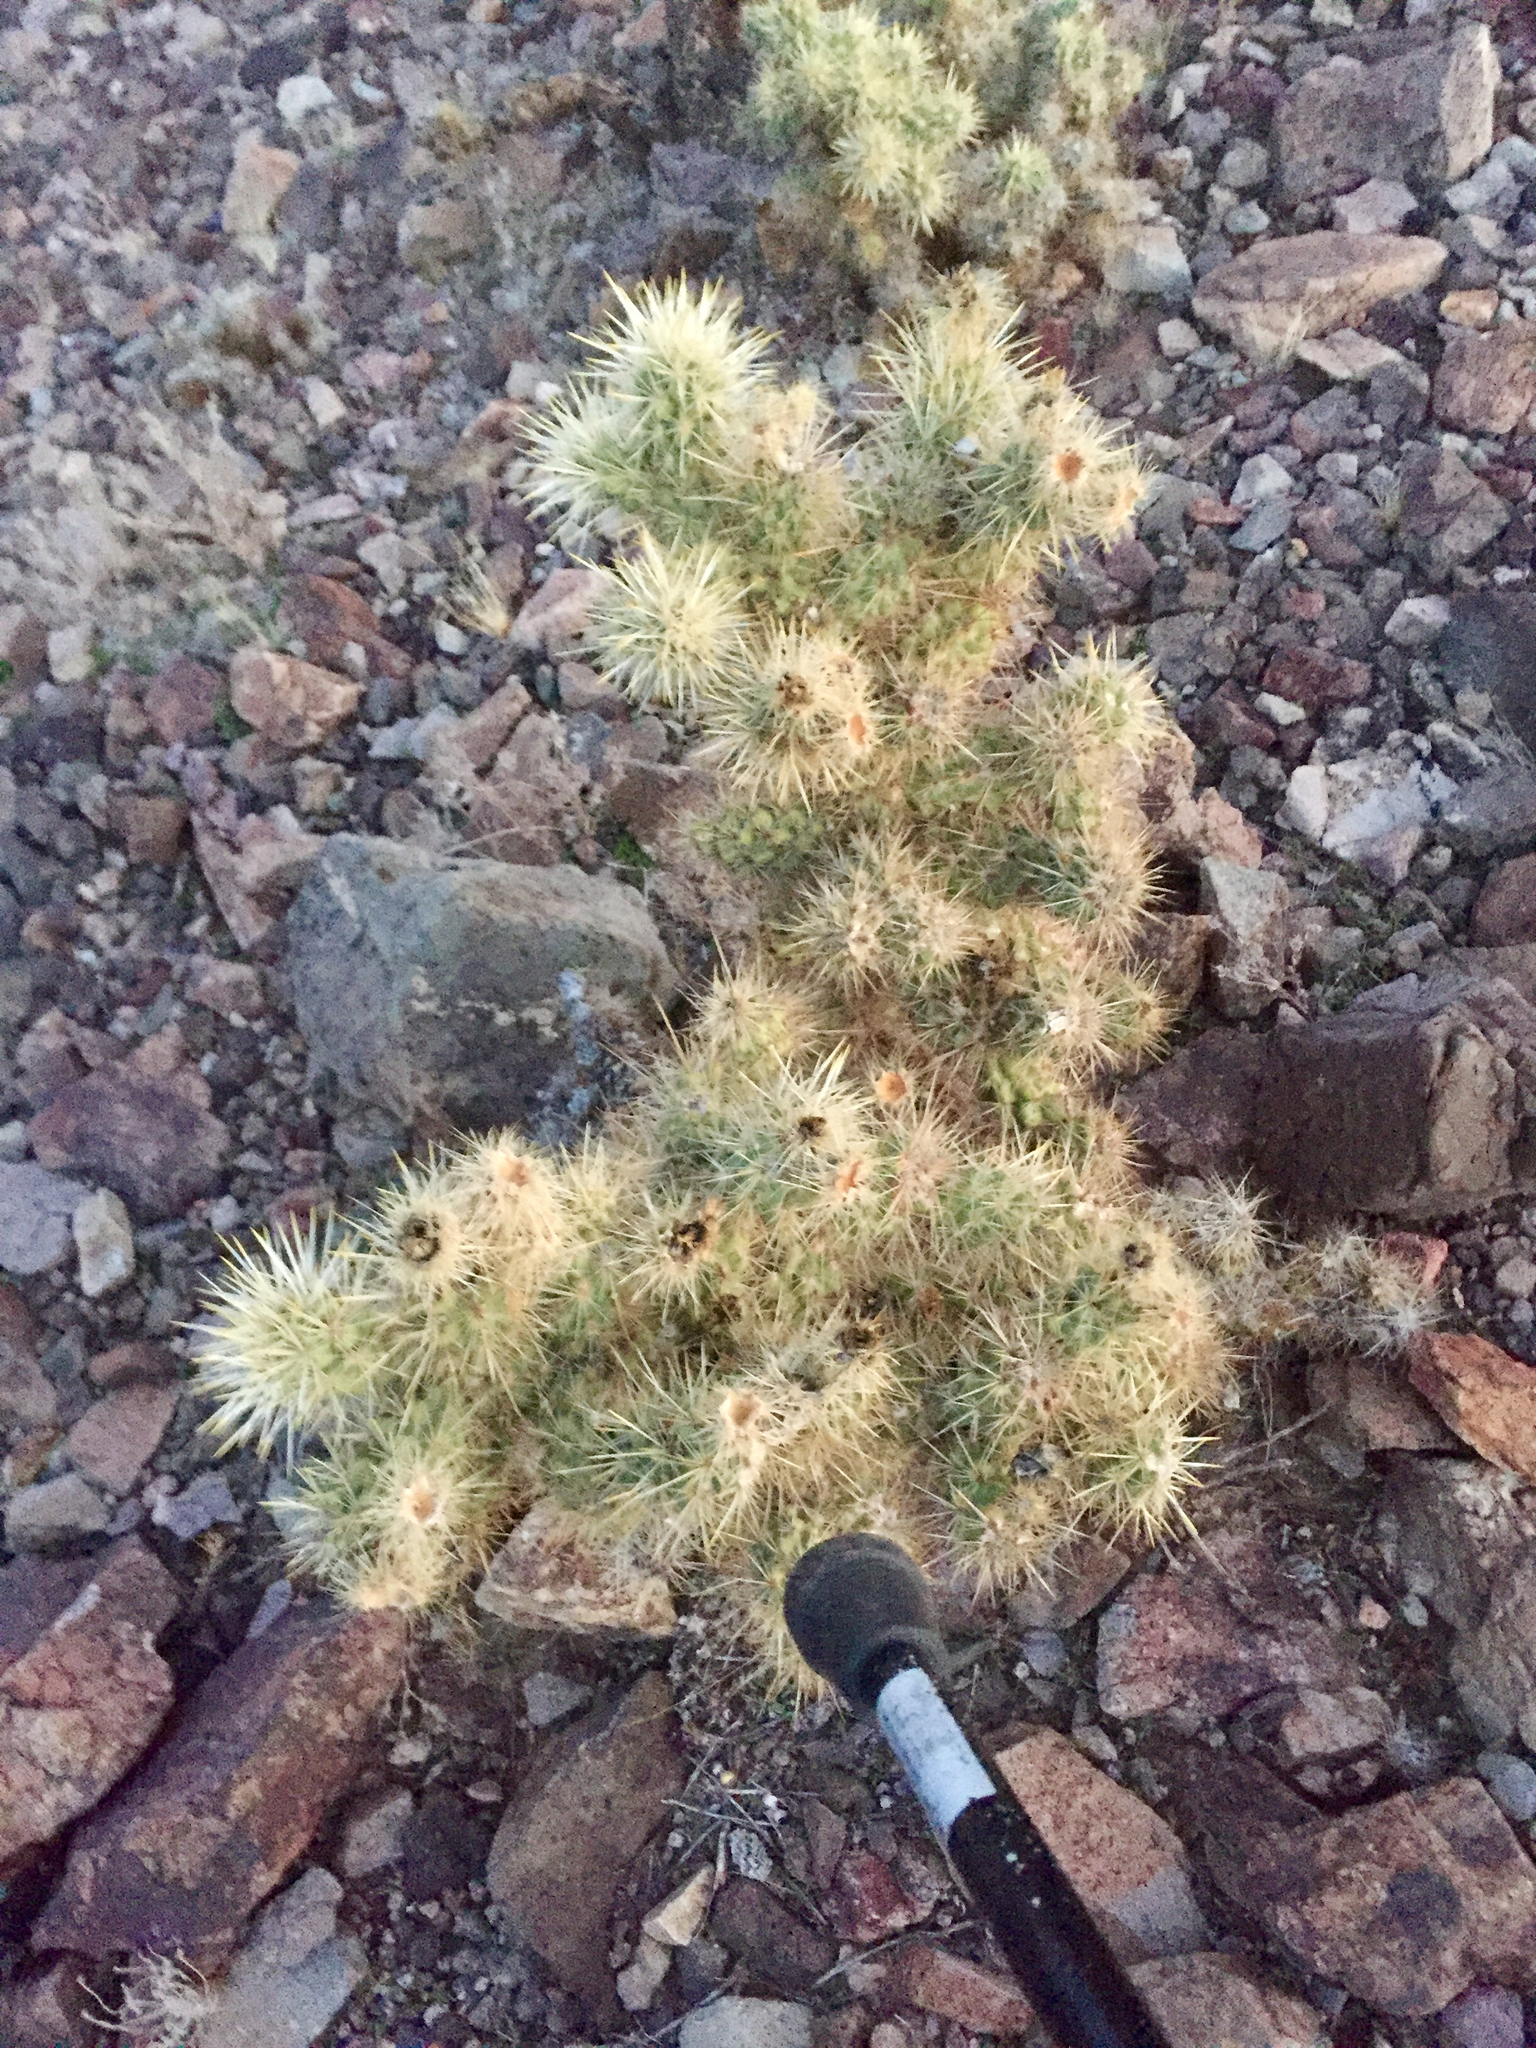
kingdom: Plantae
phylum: Tracheophyta
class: Magnoliopsida
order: Caryophyllales
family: Cactaceae
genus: Cylindropuntia
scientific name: Cylindropuntia echinocarpa
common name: Ground cholla
